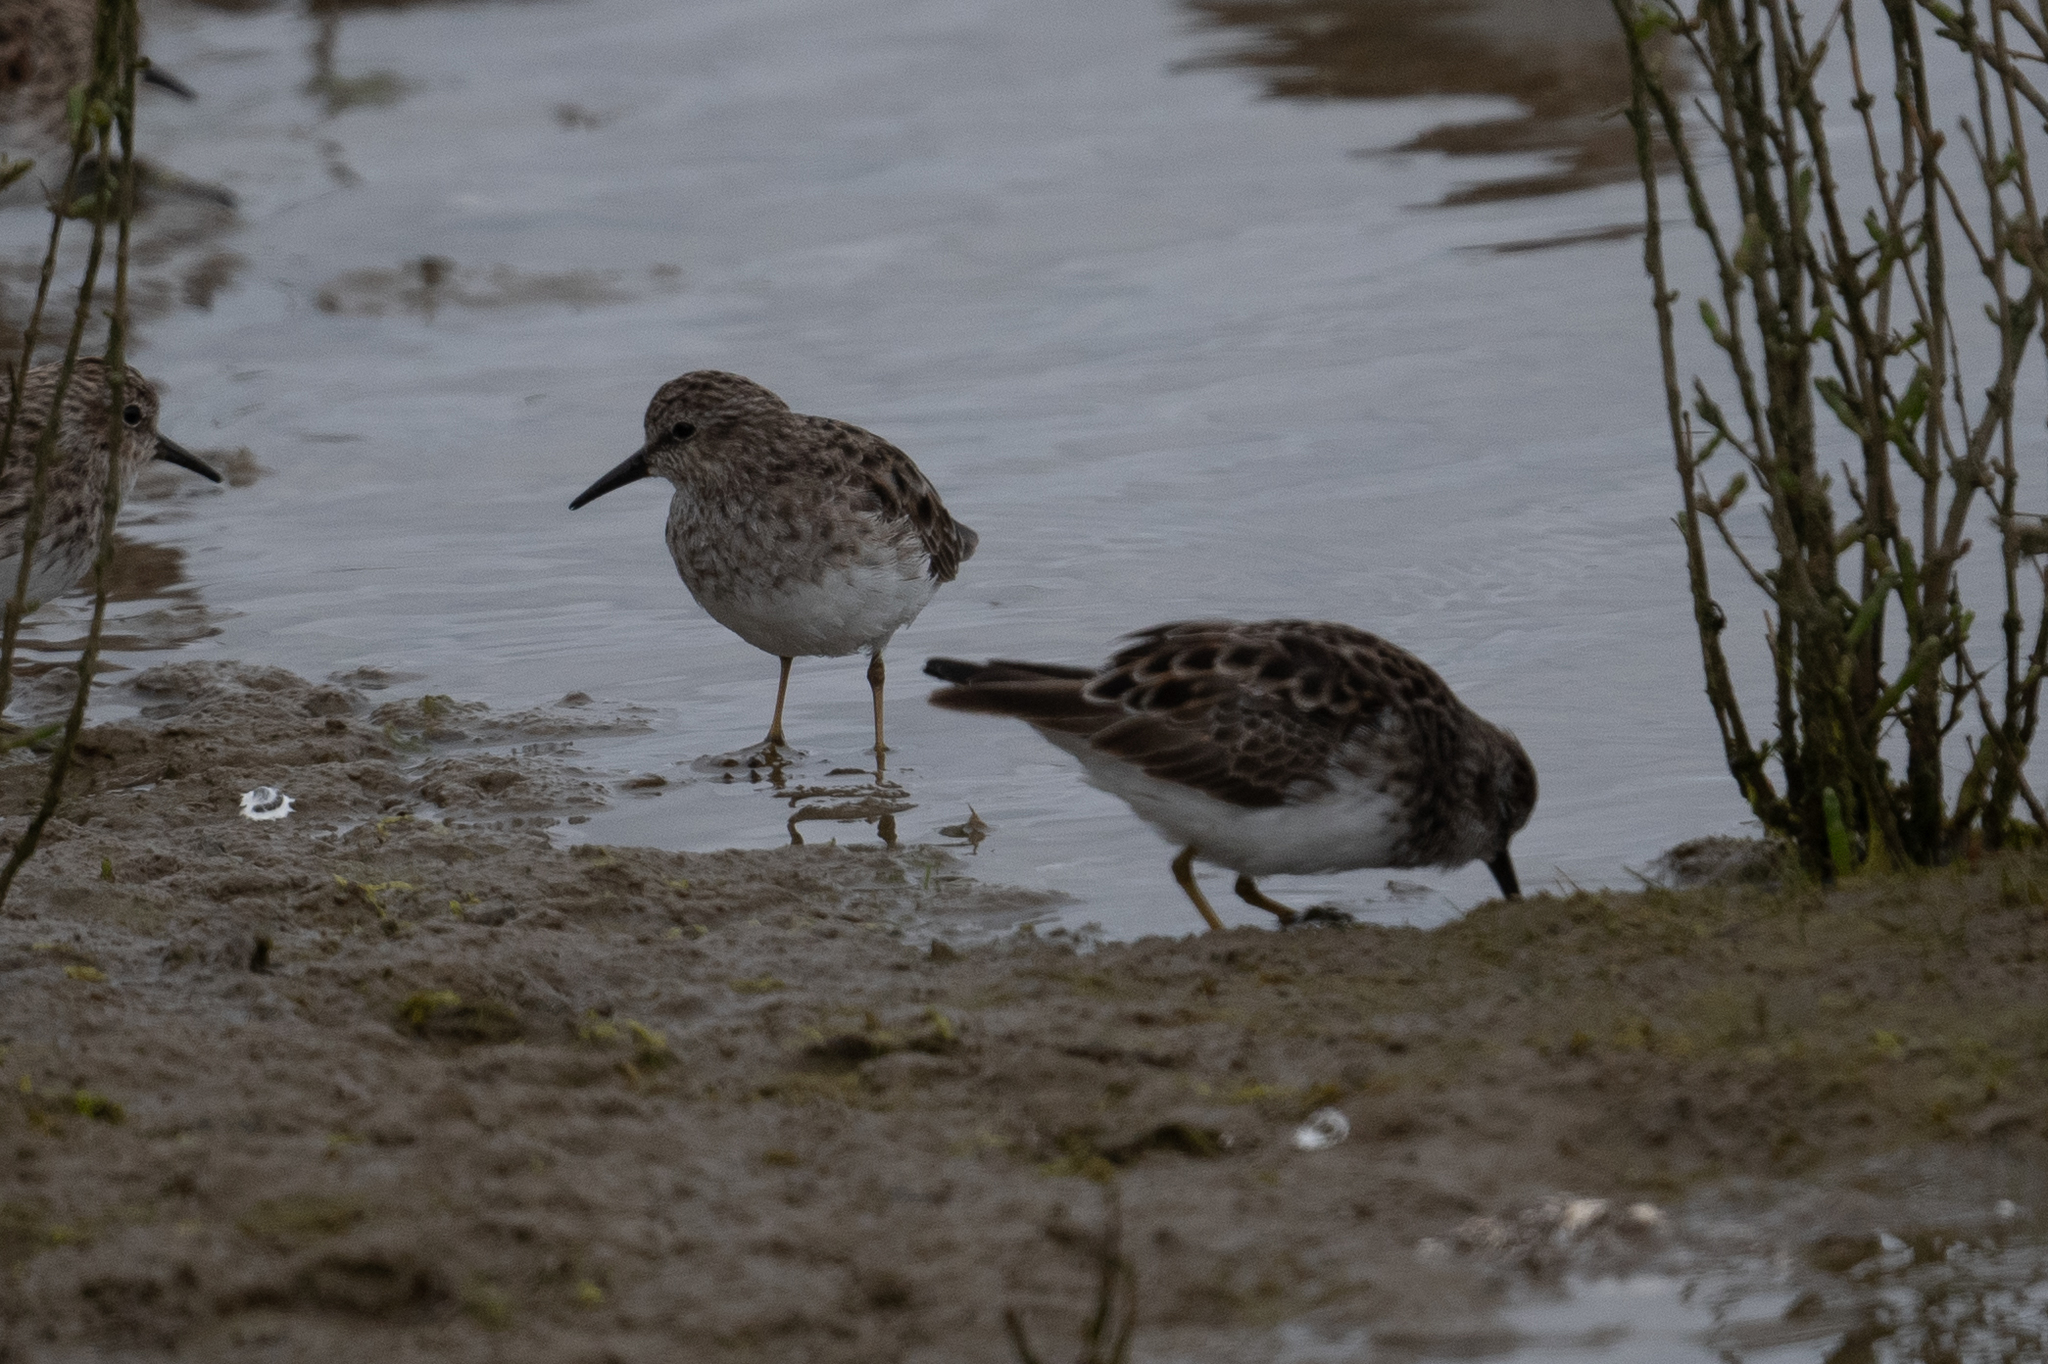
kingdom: Animalia
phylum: Chordata
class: Aves
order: Charadriiformes
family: Scolopacidae
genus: Calidris
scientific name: Calidris minutilla
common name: Least sandpiper
